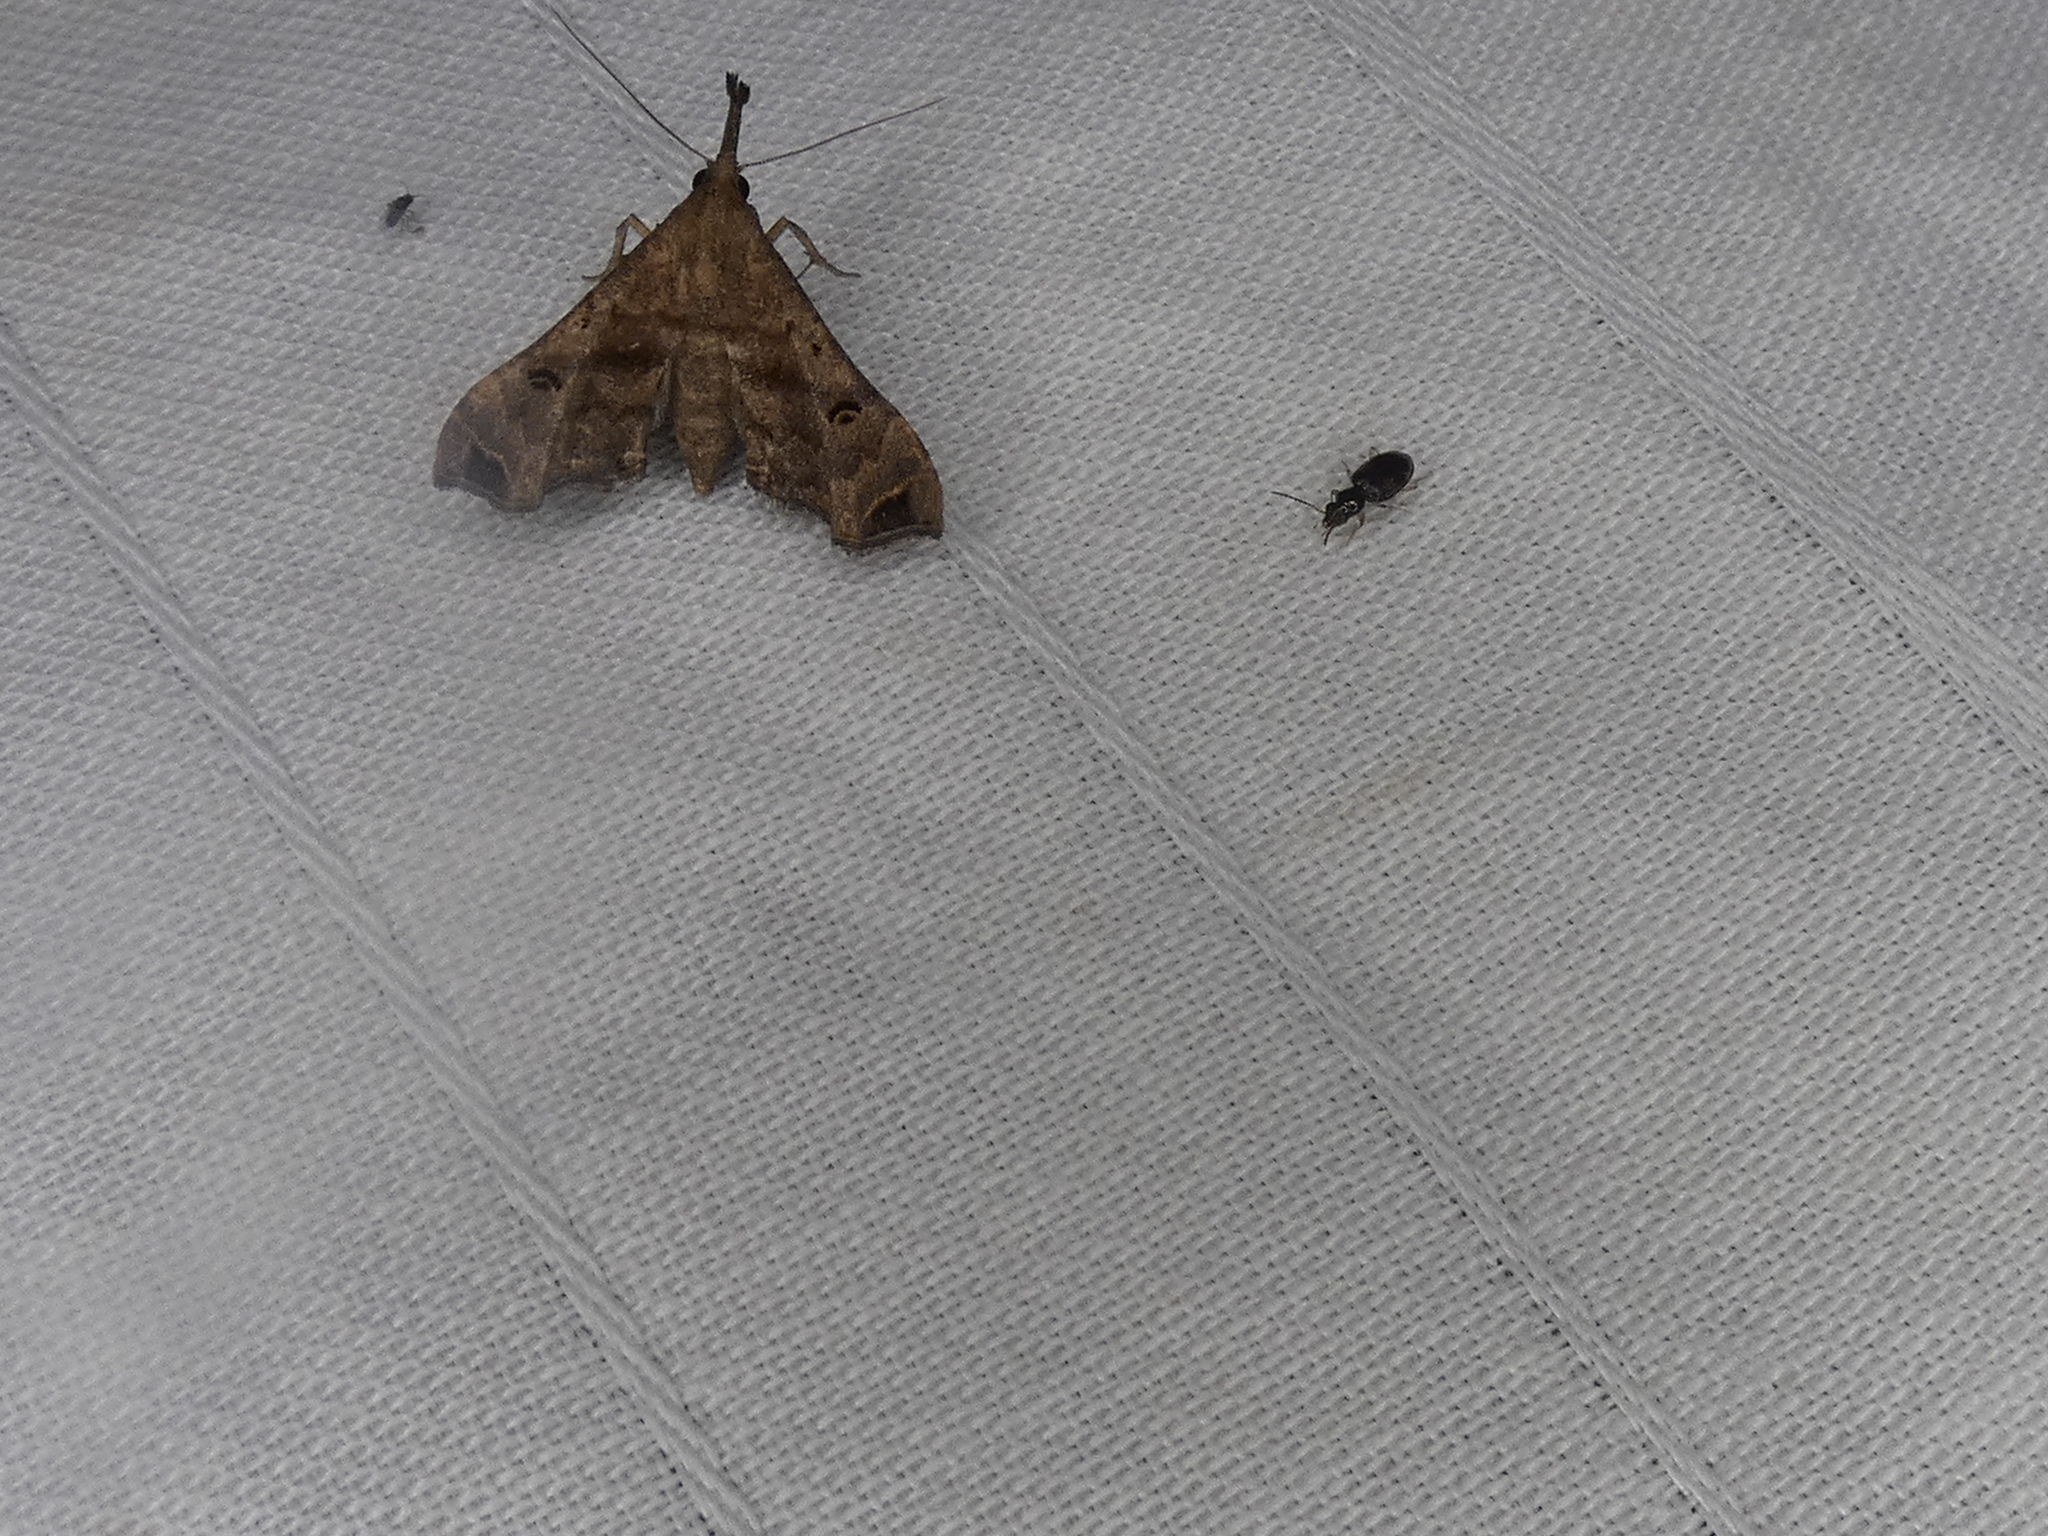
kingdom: Animalia
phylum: Arthropoda
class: Insecta
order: Lepidoptera
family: Erebidae
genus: Palthis
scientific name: Palthis asopialis
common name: Faint-spotted palthis moth
